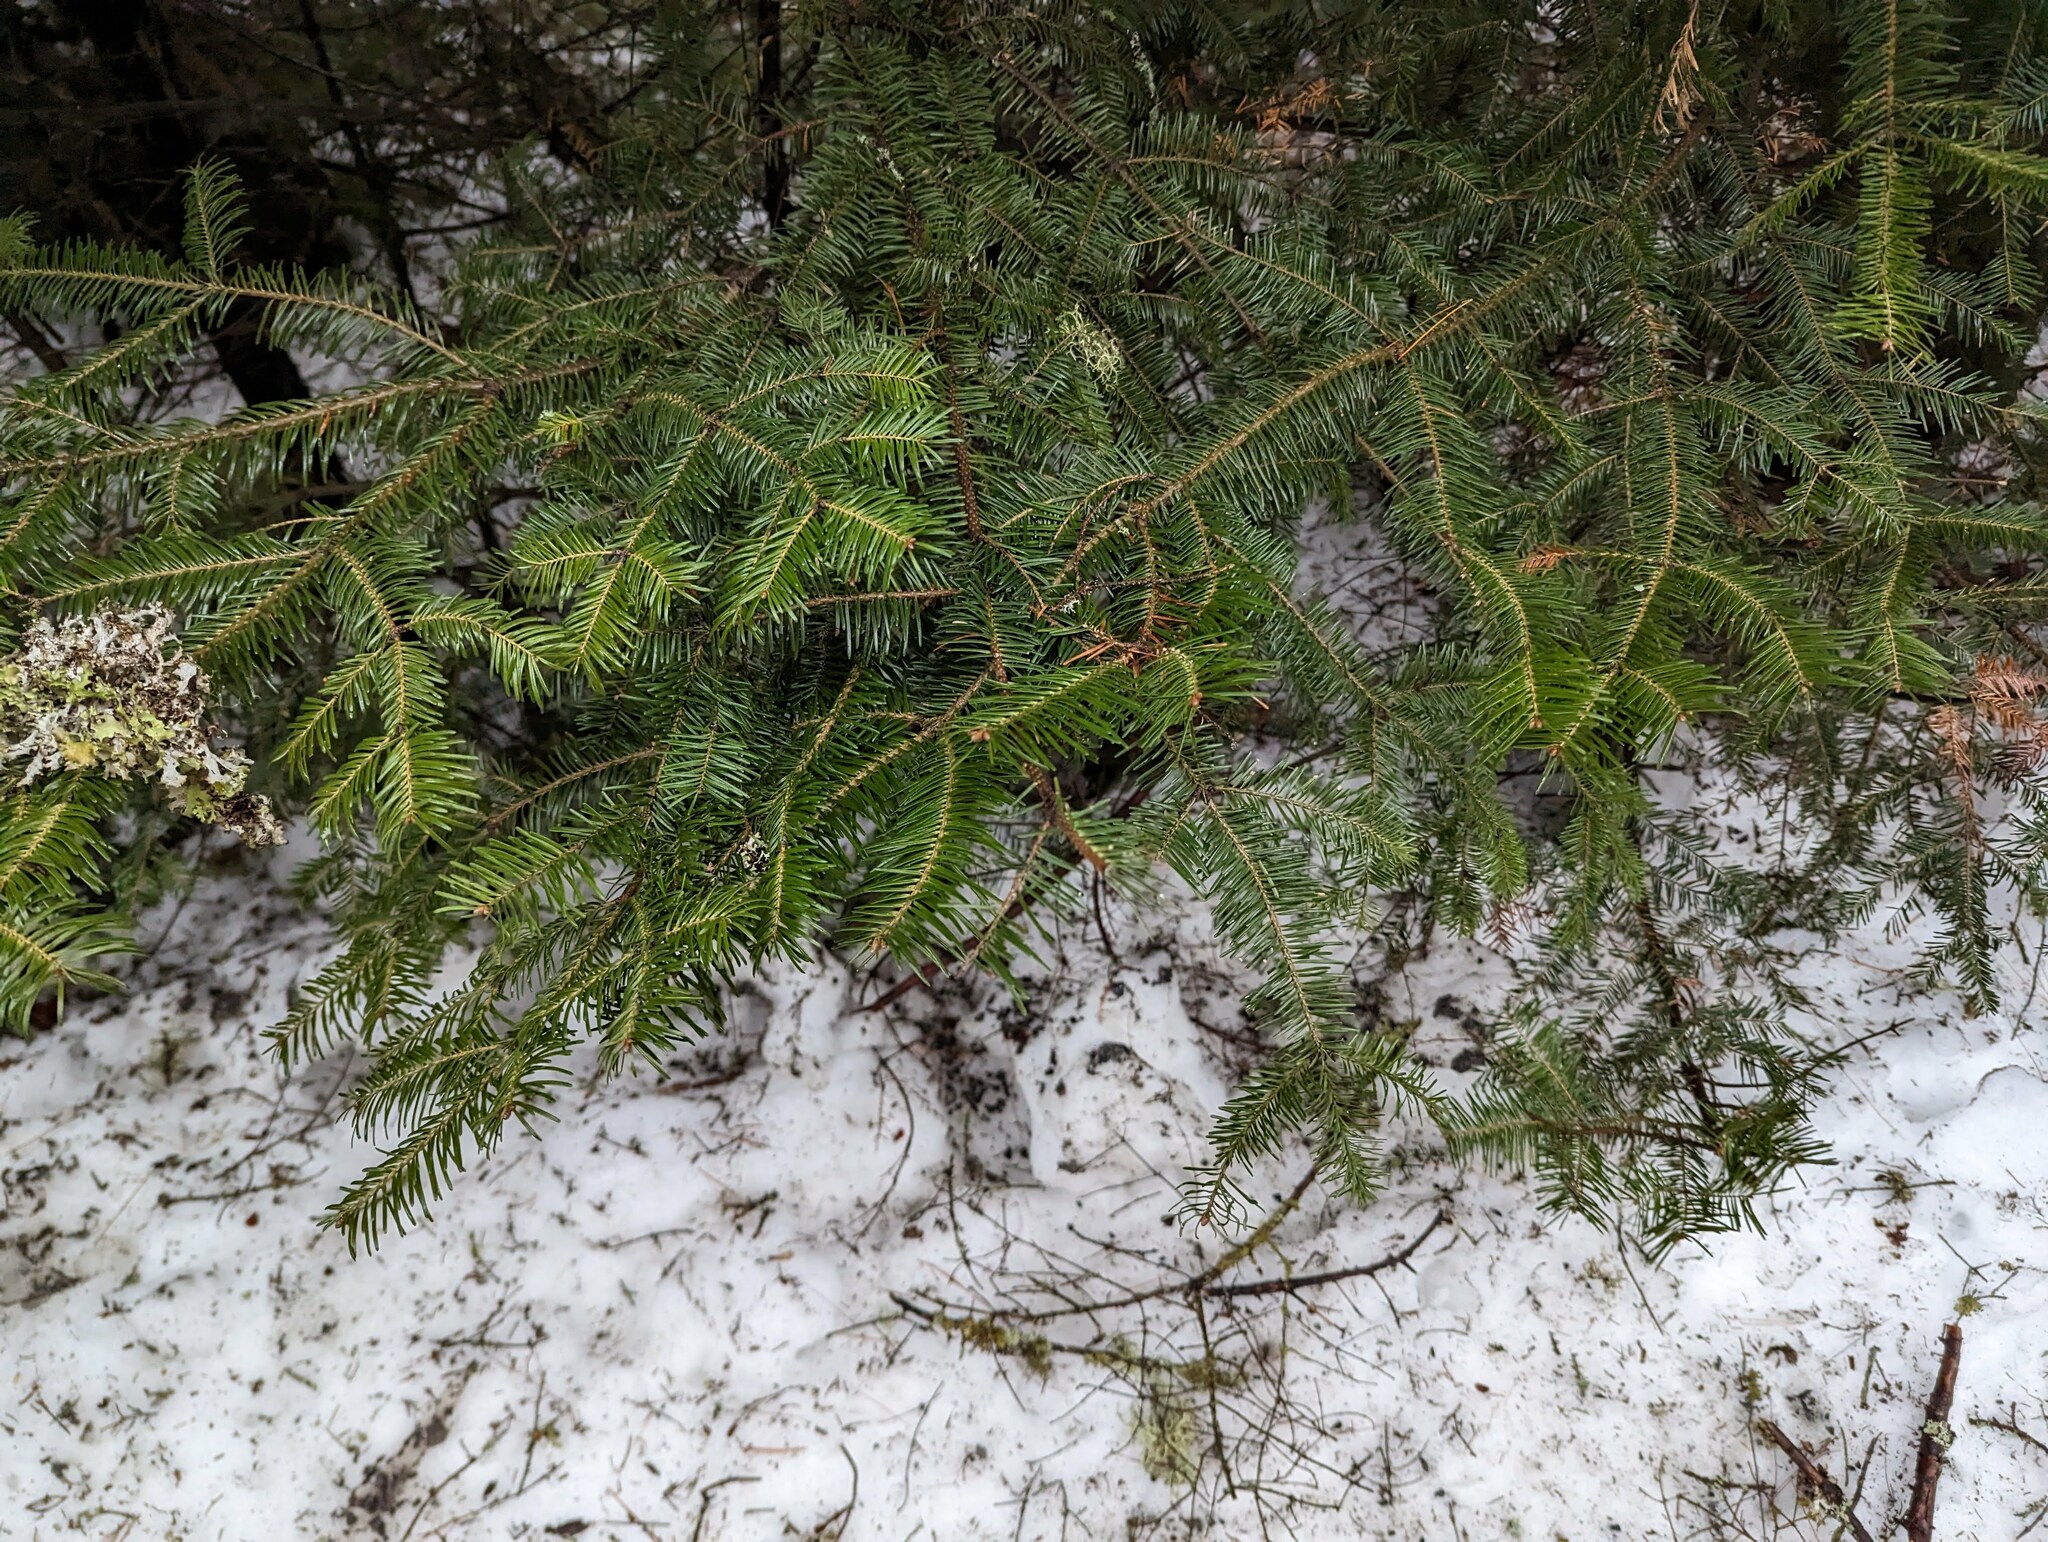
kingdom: Plantae
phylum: Tracheophyta
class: Pinopsida
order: Pinales
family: Pinaceae
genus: Abies
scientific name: Abies balsamea
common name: Balsam fir
